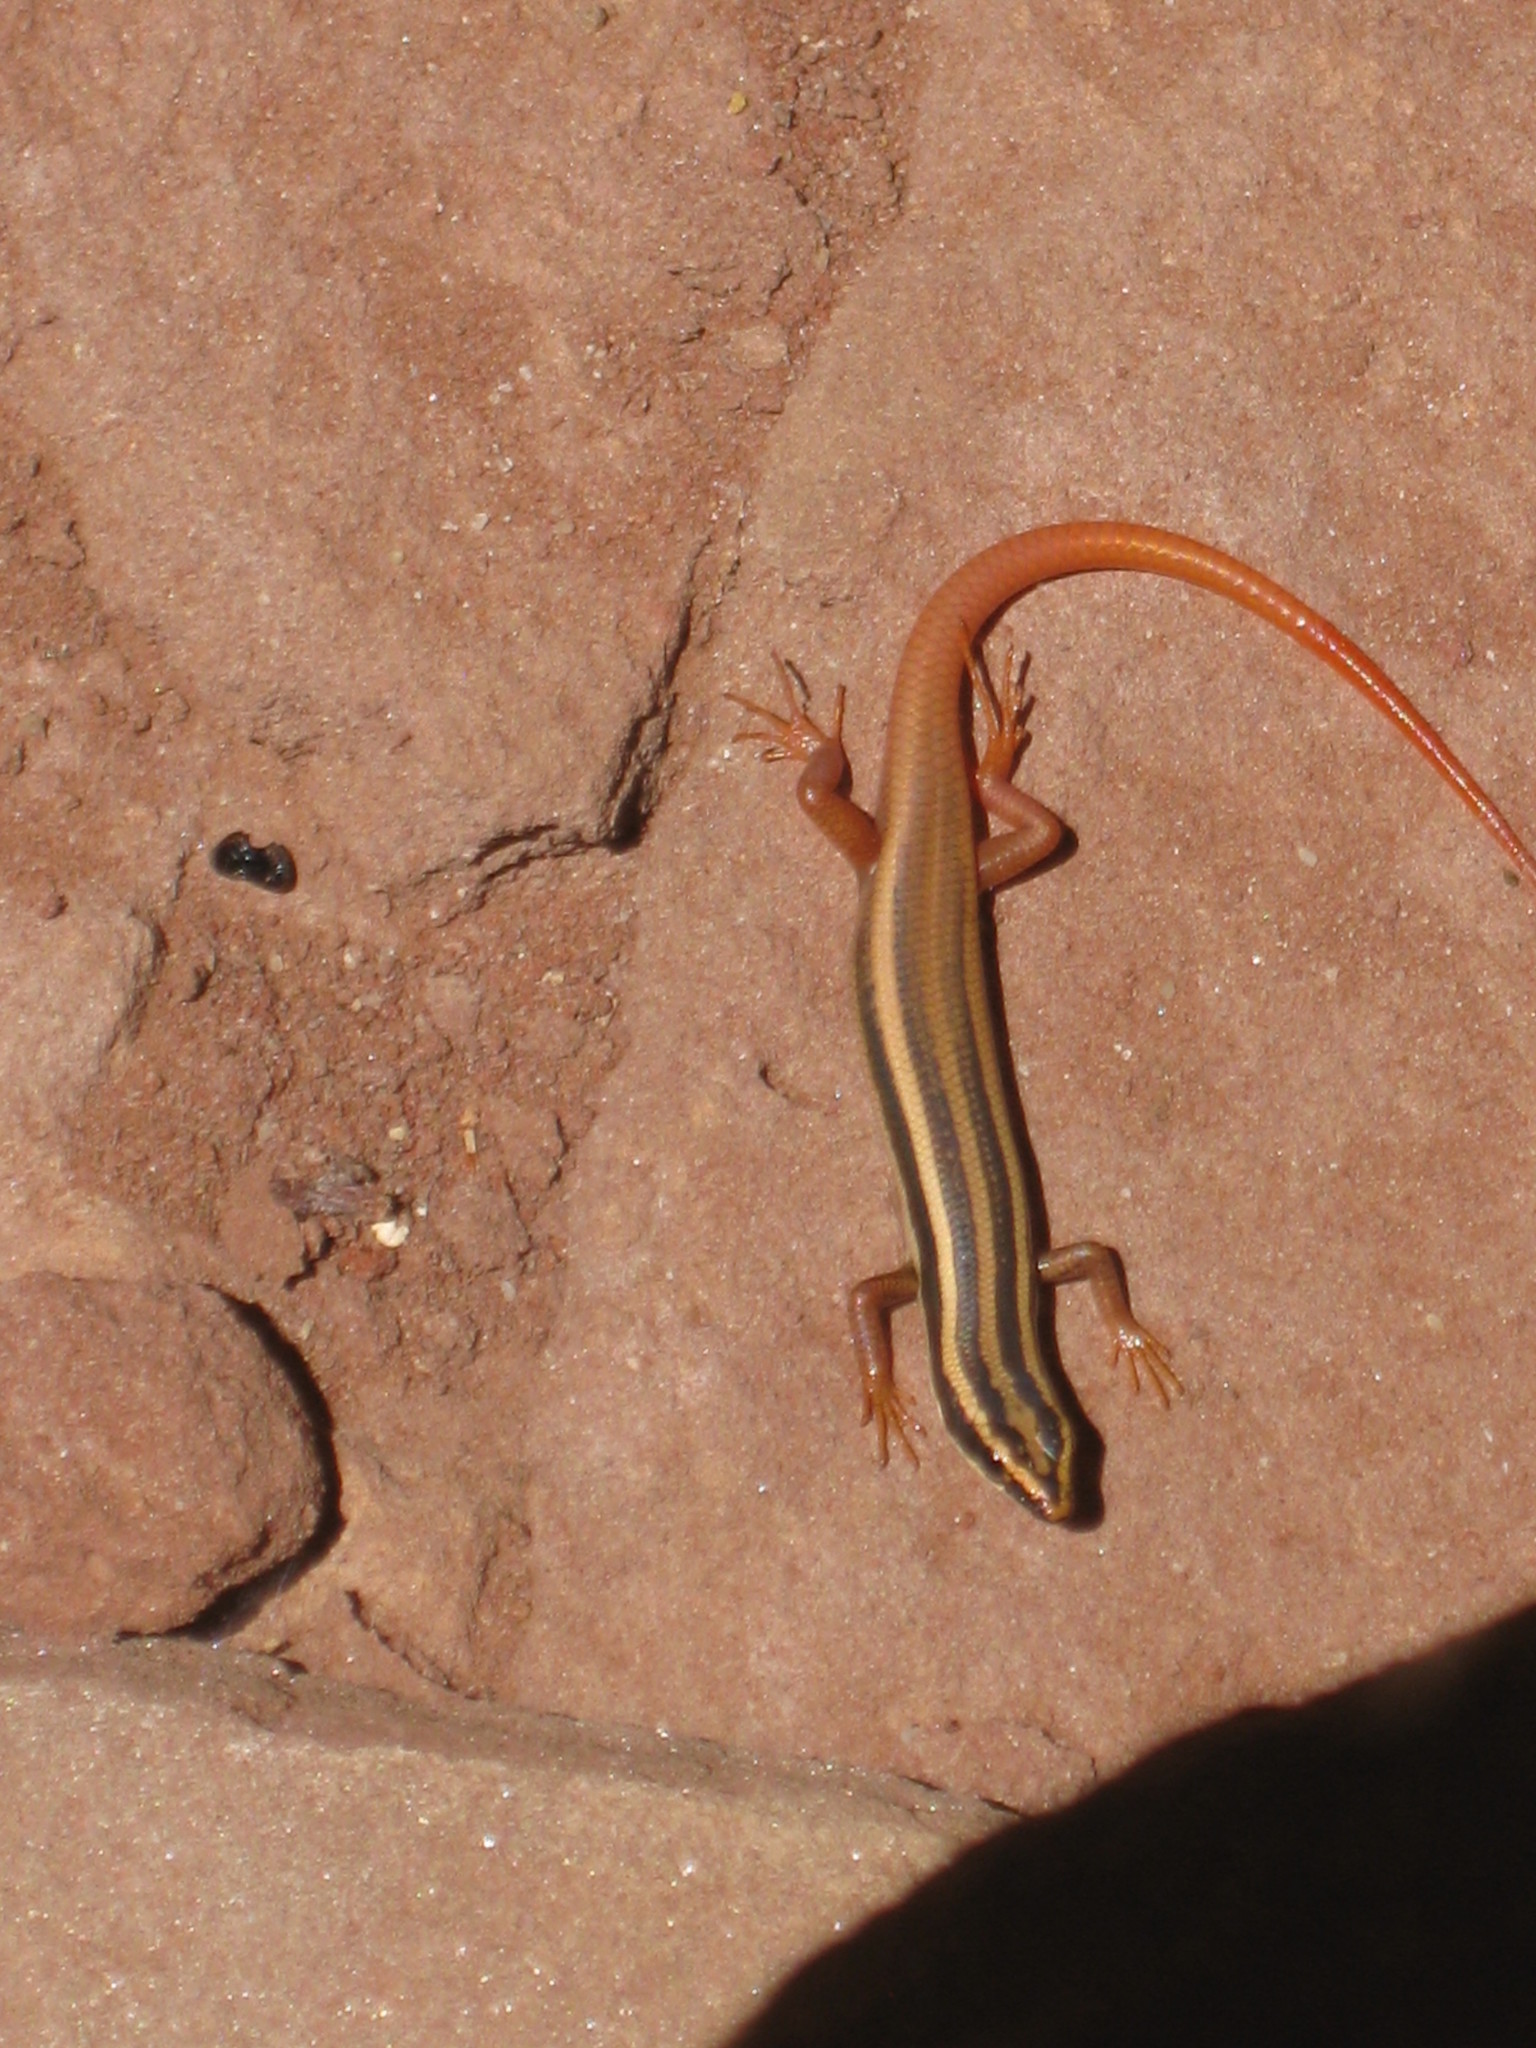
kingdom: Animalia
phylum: Chordata
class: Squamata
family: Scincidae
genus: Morethia
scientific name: Morethia ruficauda
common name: Lined firetail skink
